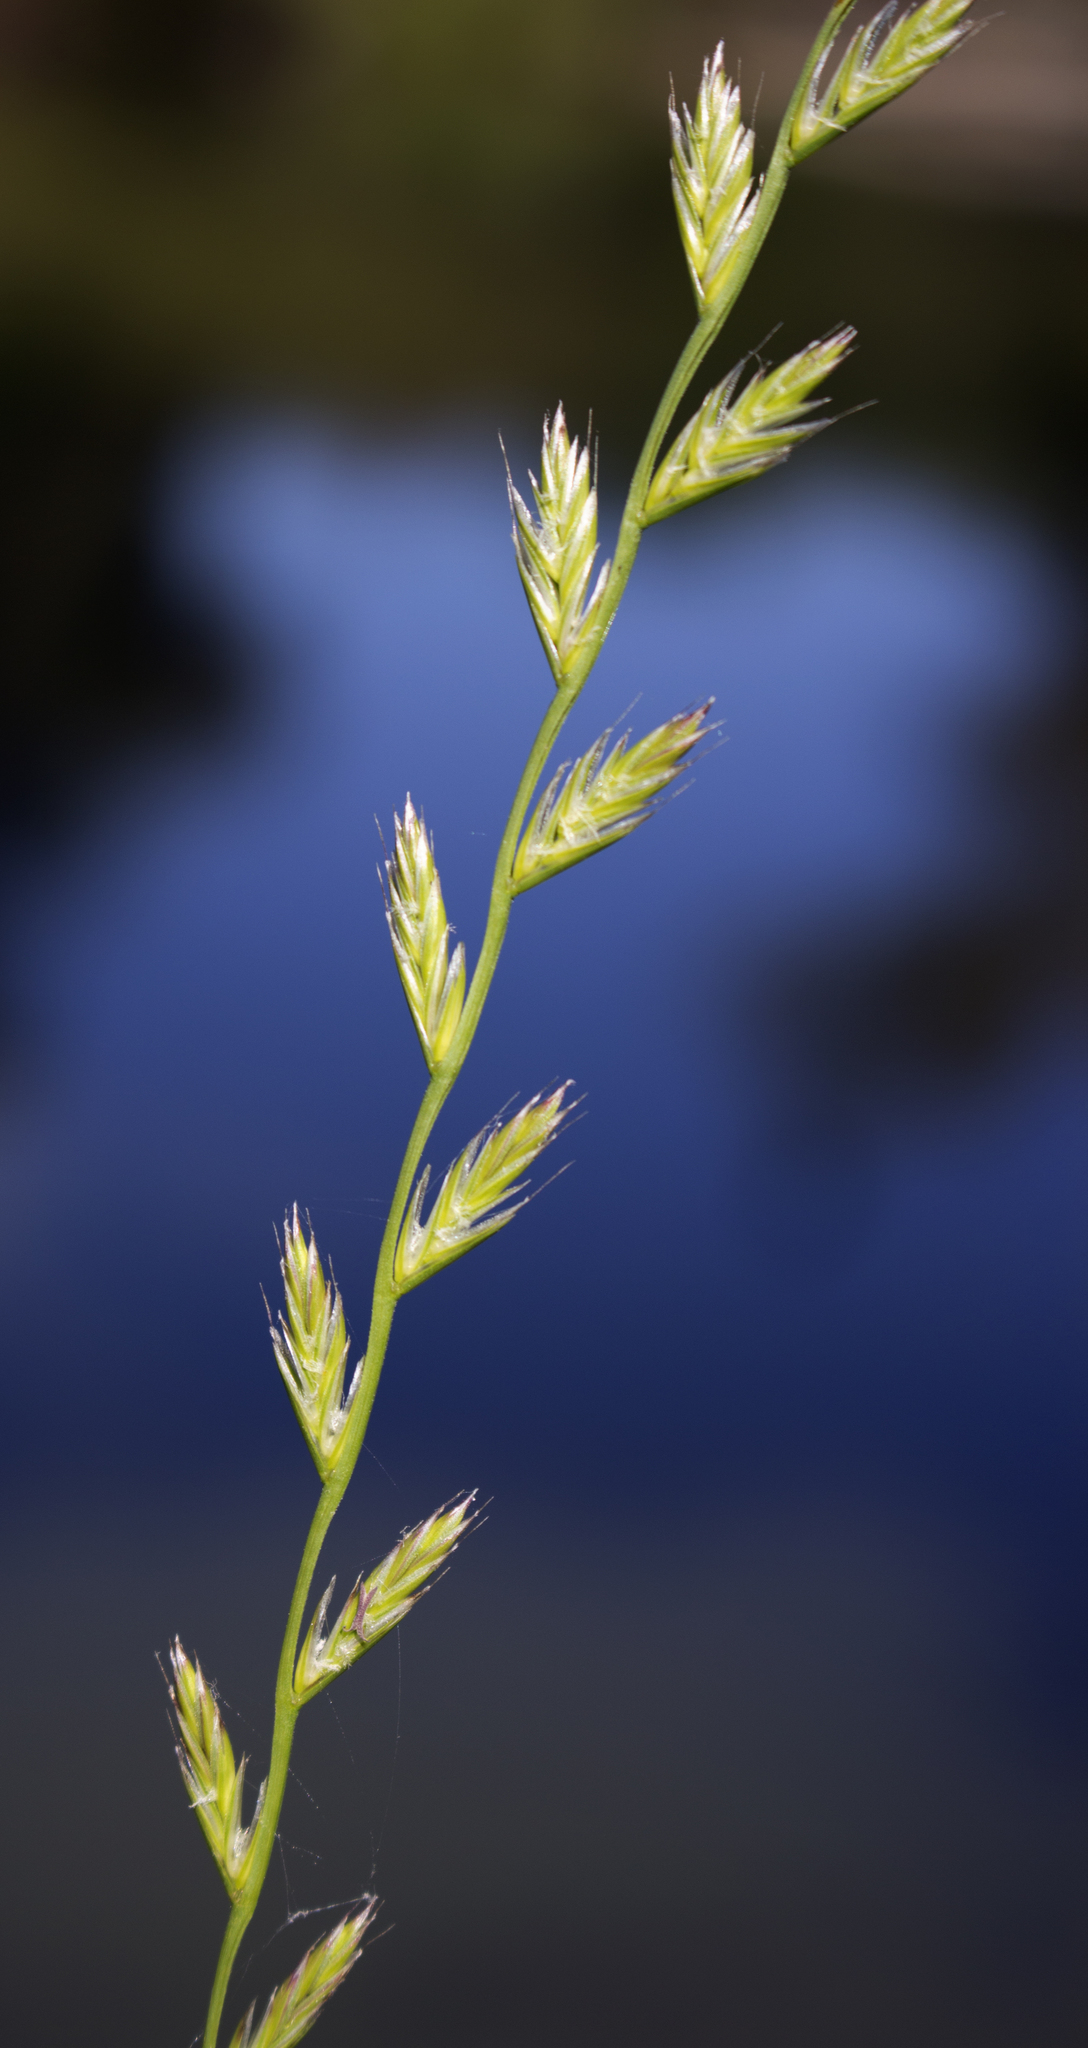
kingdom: Plantae
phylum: Tracheophyta
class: Liliopsida
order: Poales
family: Poaceae
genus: Lolium
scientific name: Lolium perenne
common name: Perennial ryegrass
